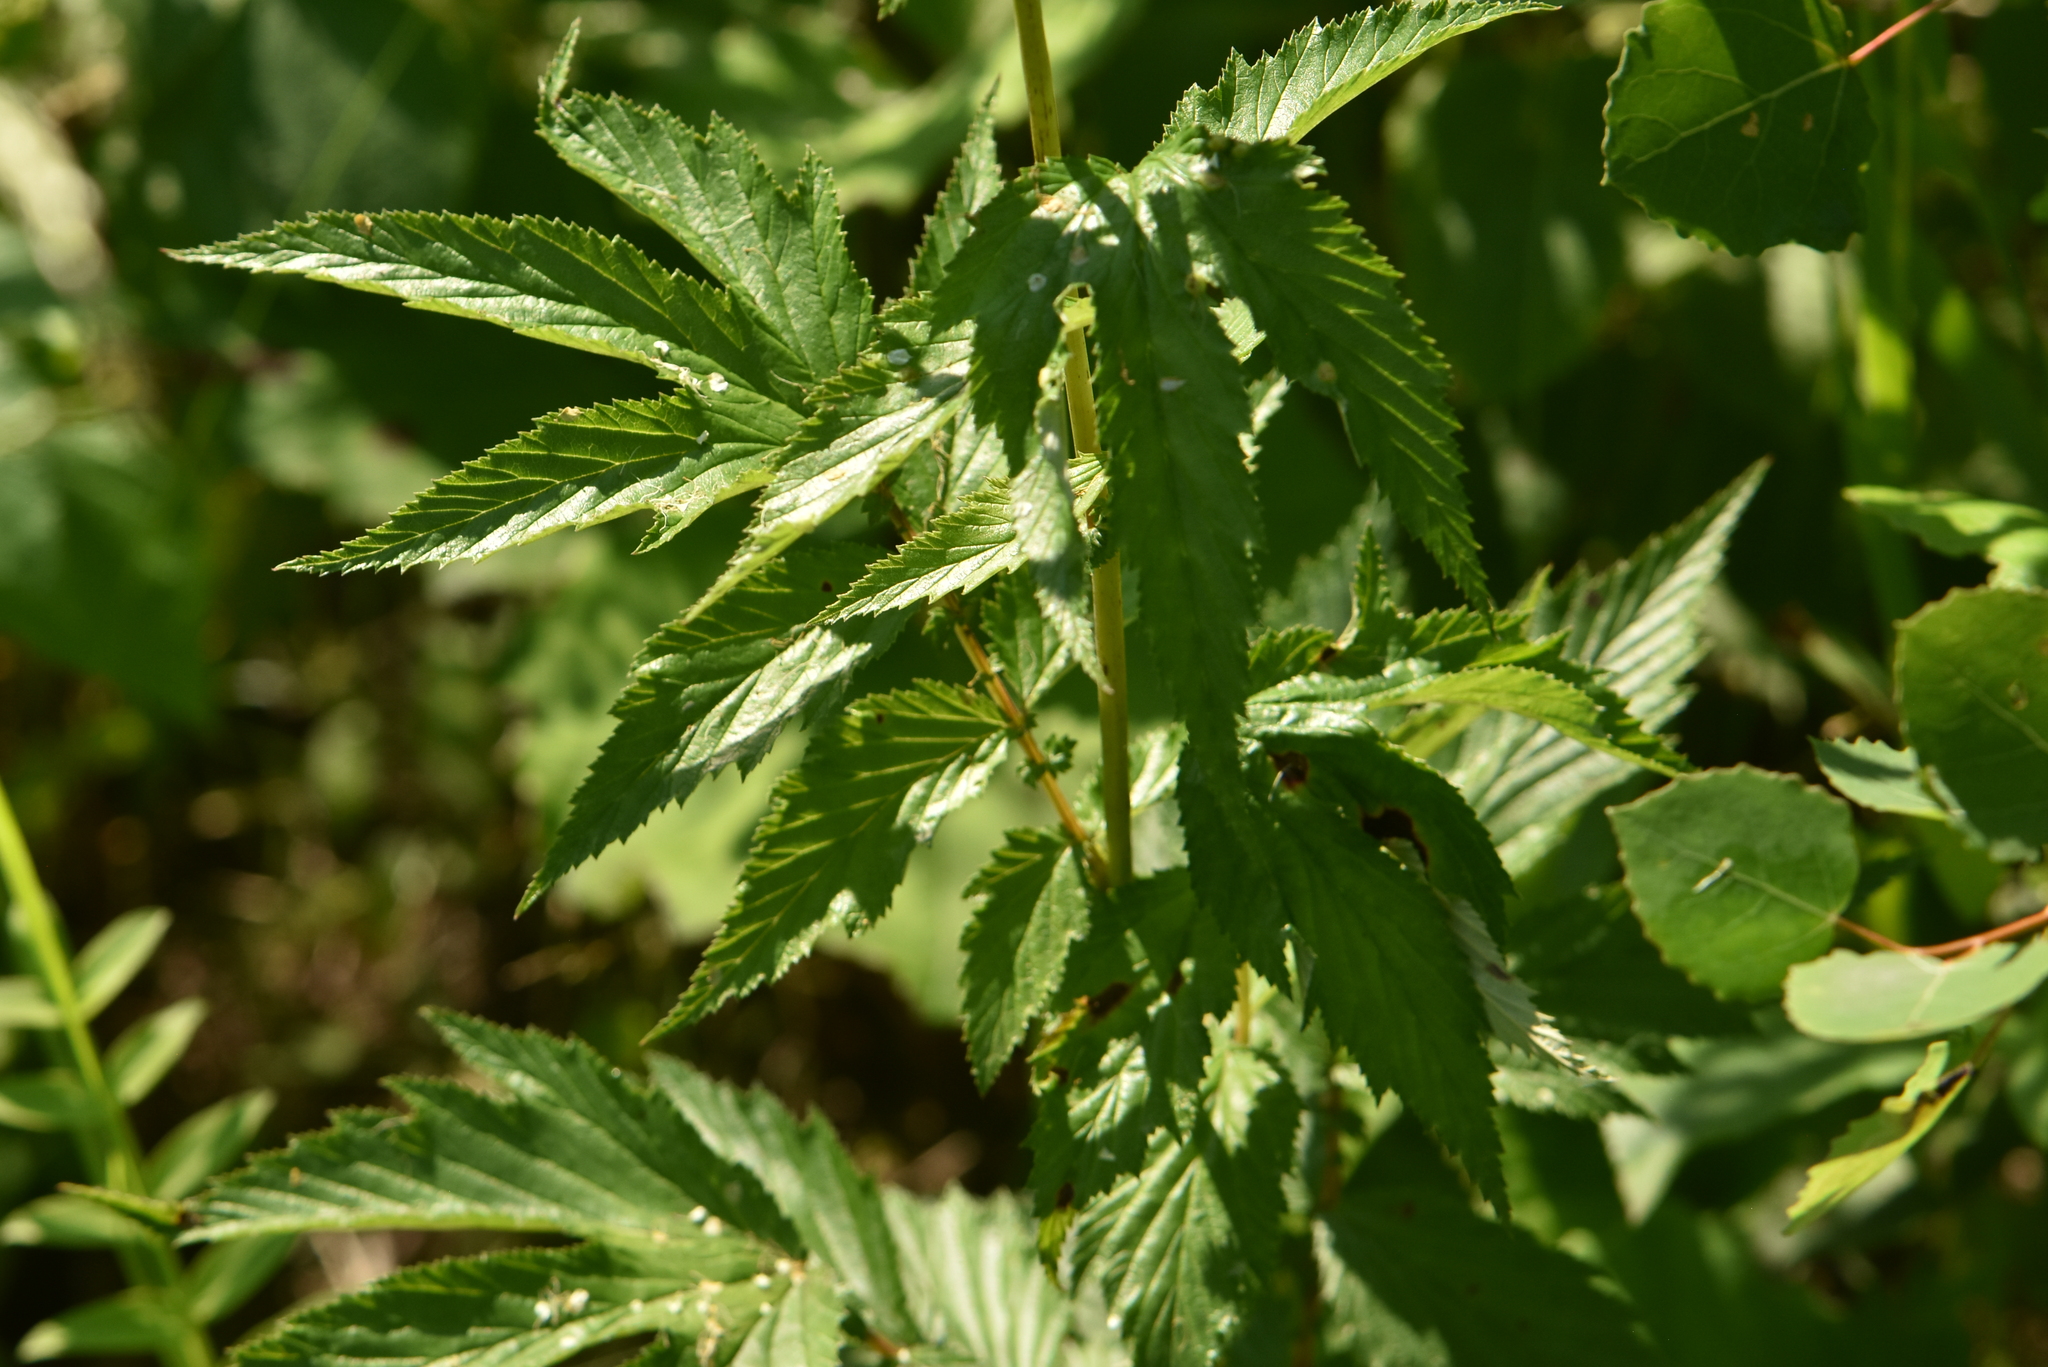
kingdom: Plantae
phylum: Tracheophyta
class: Magnoliopsida
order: Rosales
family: Rosaceae
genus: Filipendula
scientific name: Filipendula ulmaria
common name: Meadowsweet
